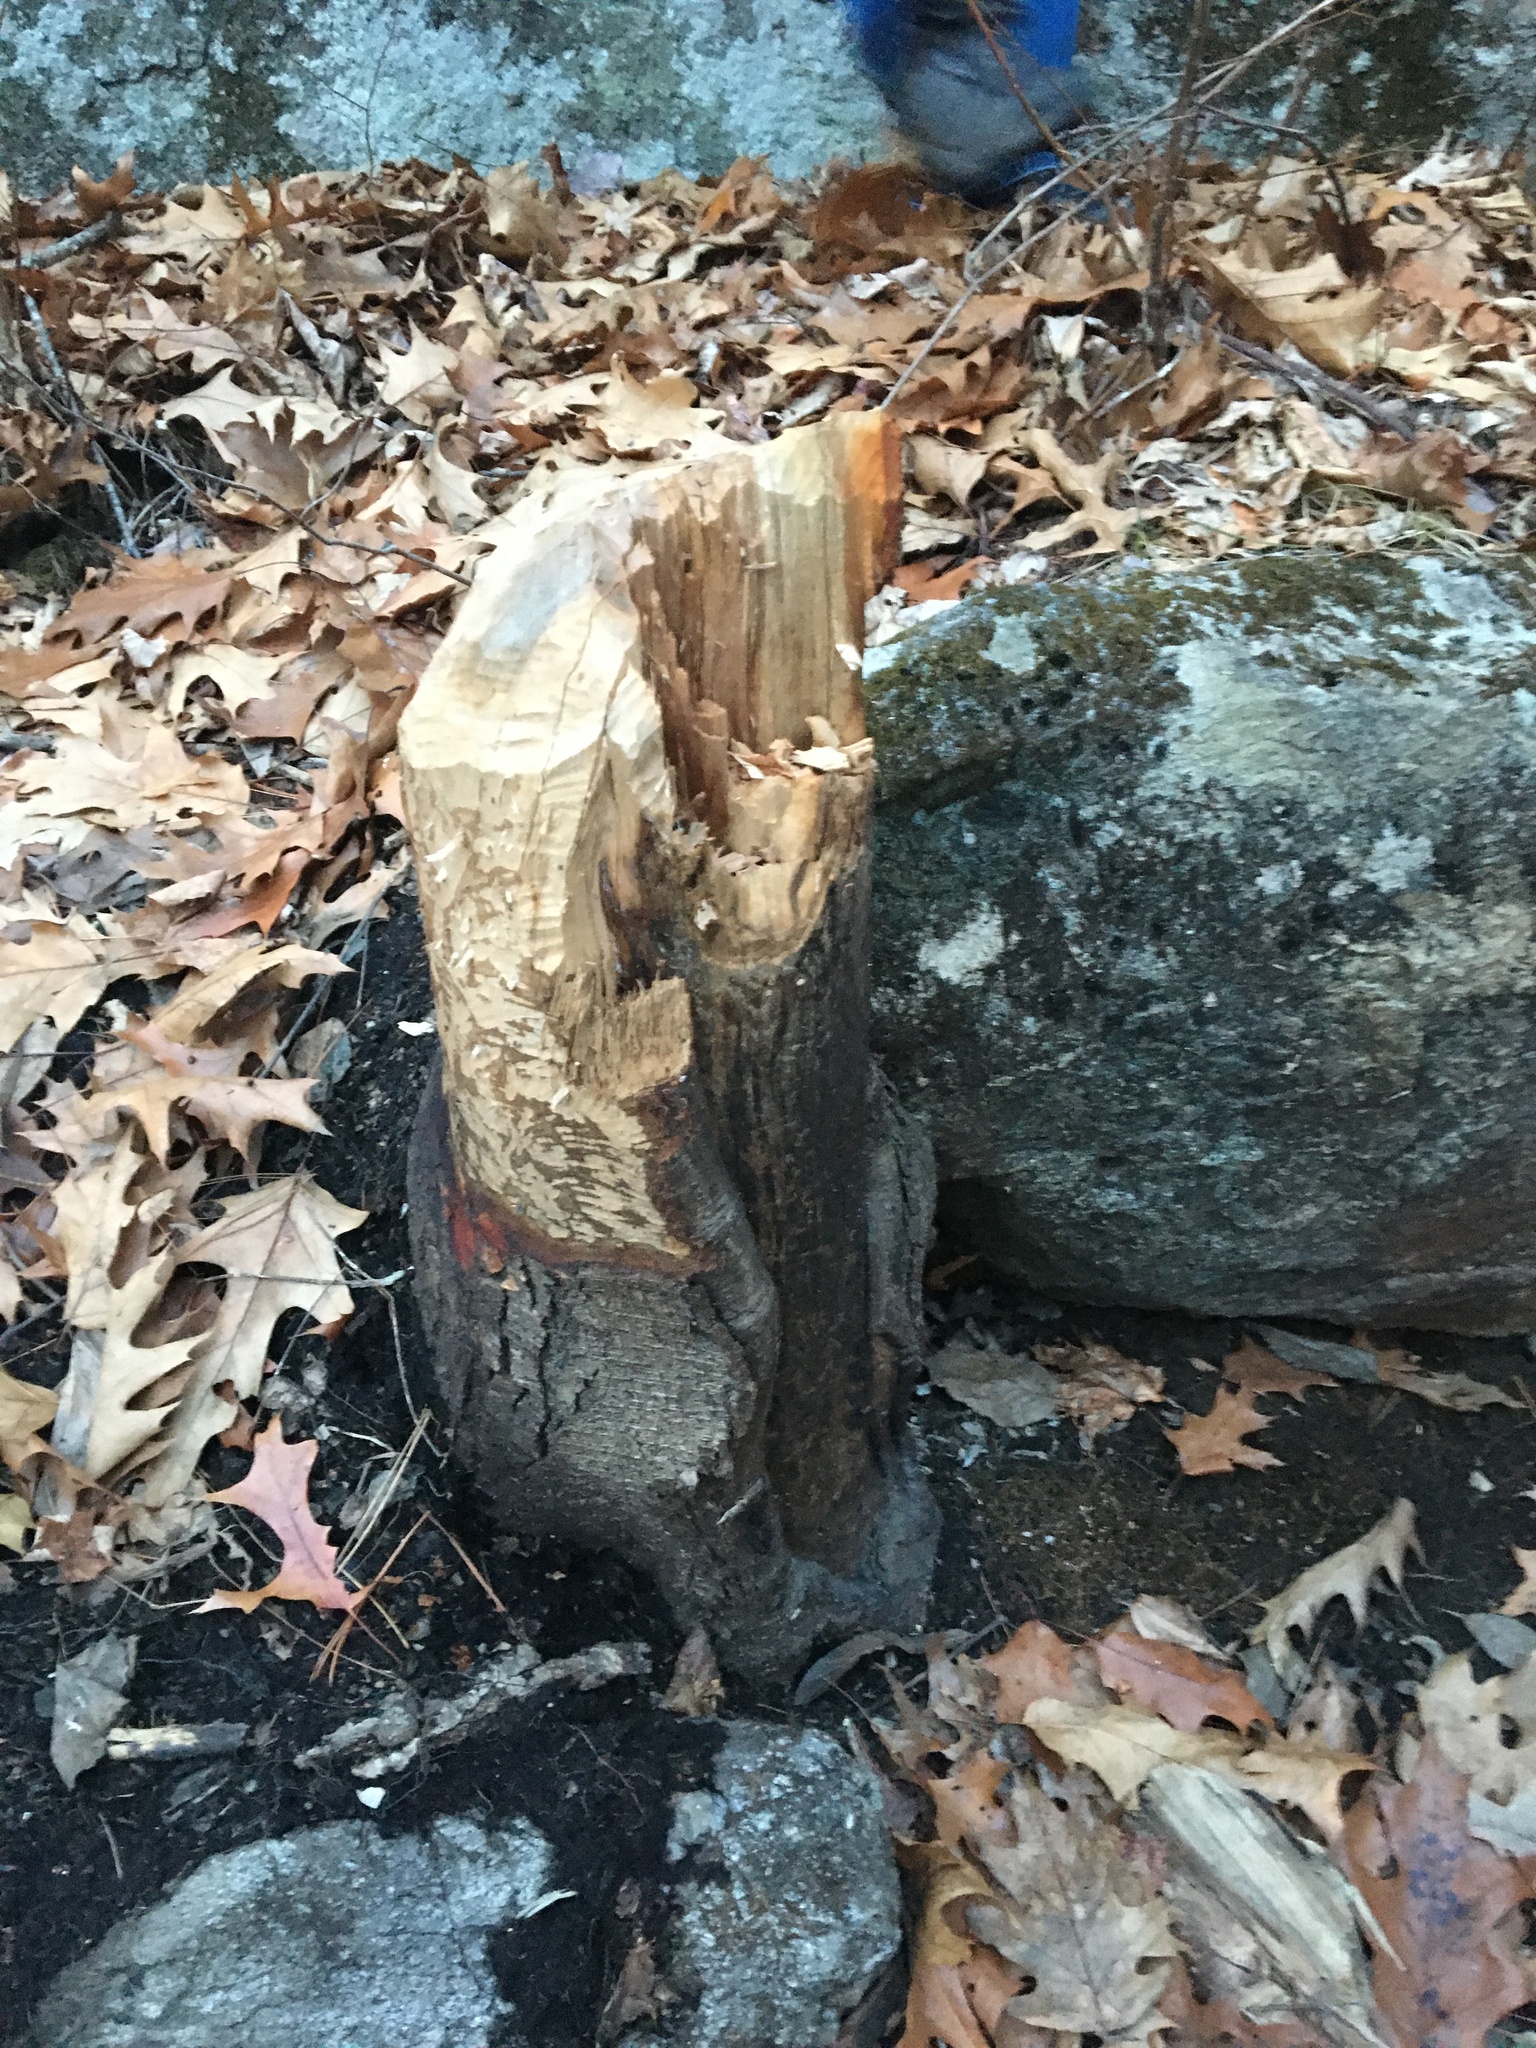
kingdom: Animalia
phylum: Chordata
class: Mammalia
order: Rodentia
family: Castoridae
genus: Castor
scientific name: Castor canadensis
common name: American beaver
